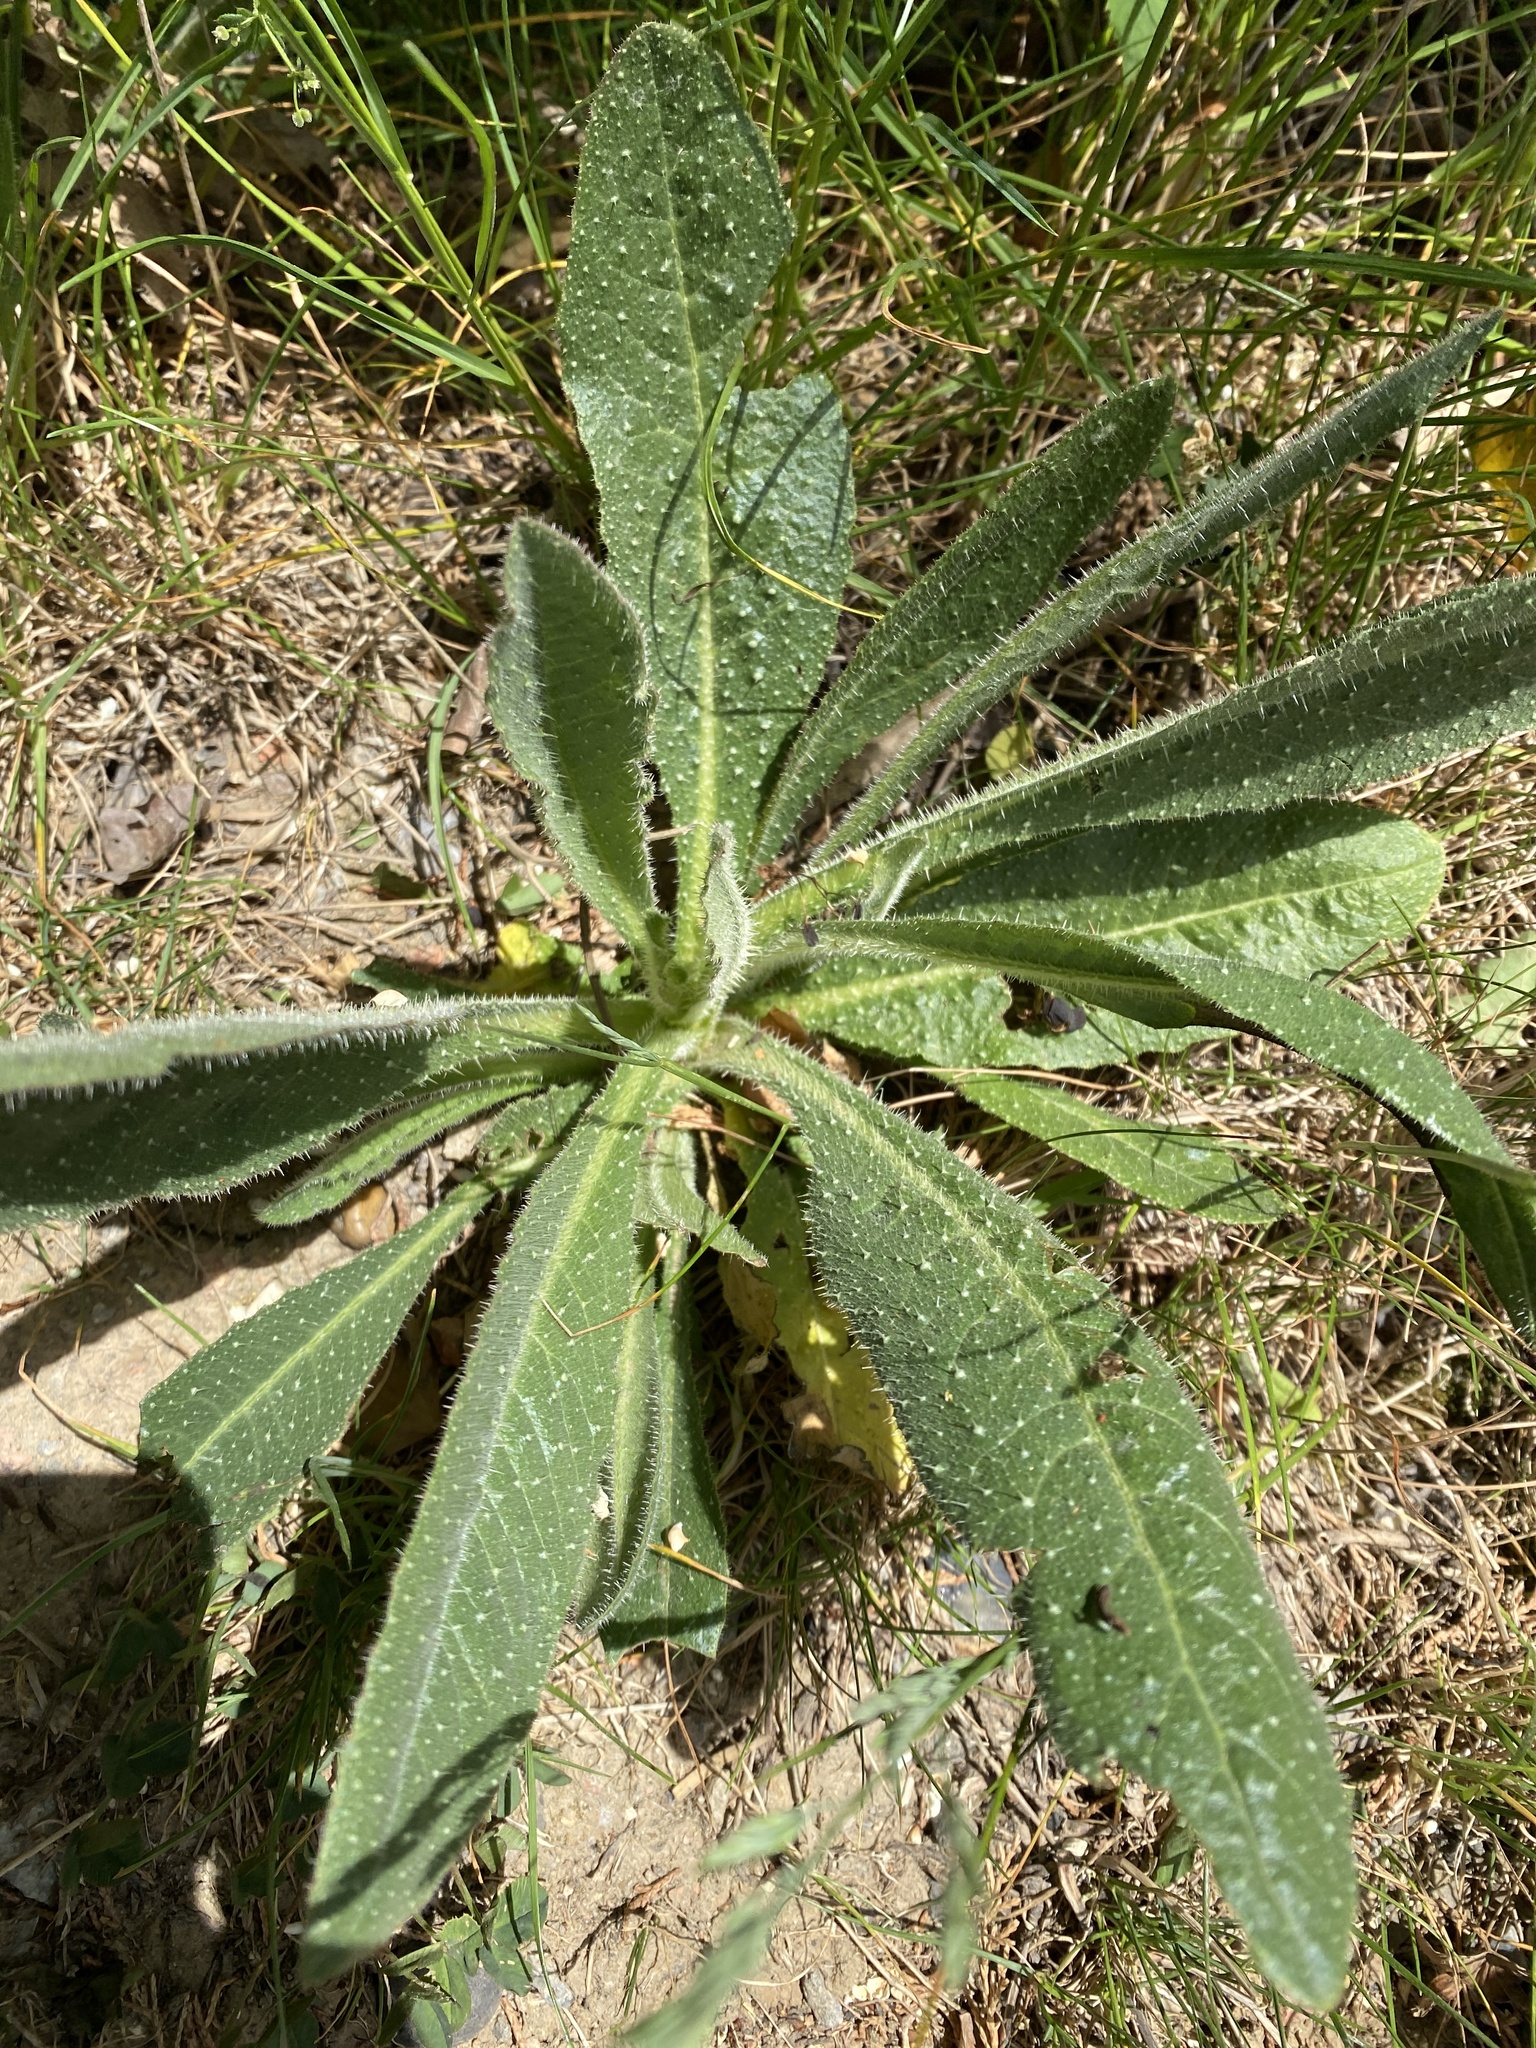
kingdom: Plantae
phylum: Tracheophyta
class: Magnoliopsida
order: Asterales
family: Asteraceae
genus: Helminthotheca
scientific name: Helminthotheca echioides
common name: Ox-tongue
